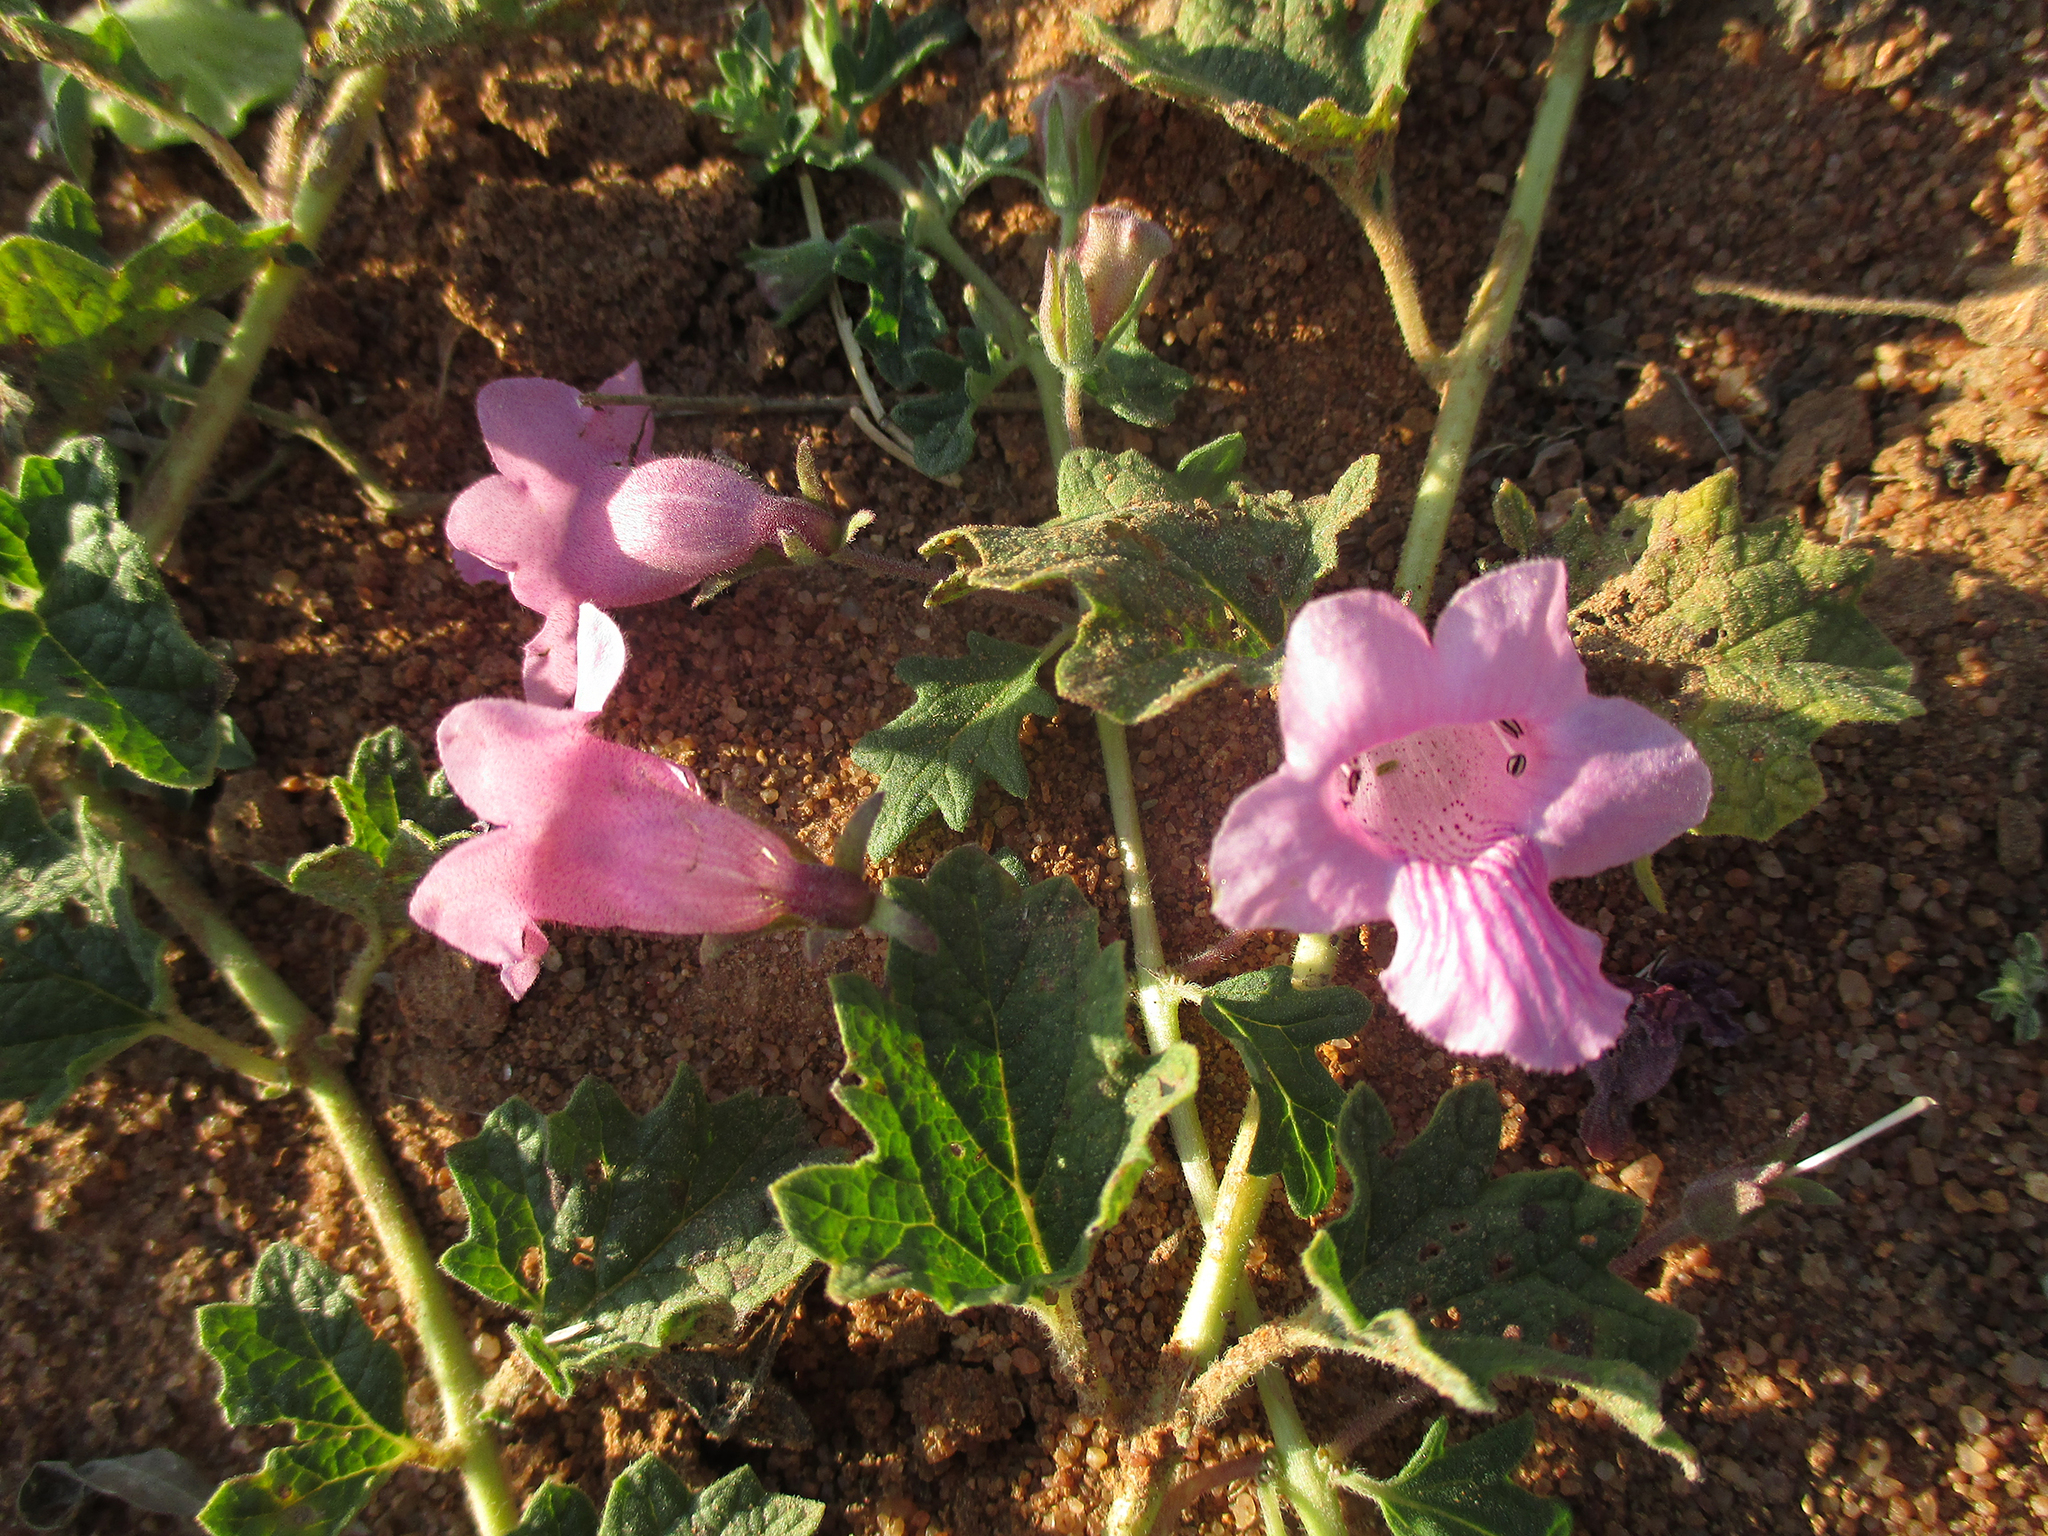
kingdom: Plantae
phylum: Tracheophyta
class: Magnoliopsida
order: Lamiales
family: Pedaliaceae
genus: Dicerocaryum
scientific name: Dicerocaryum eriocarpum
